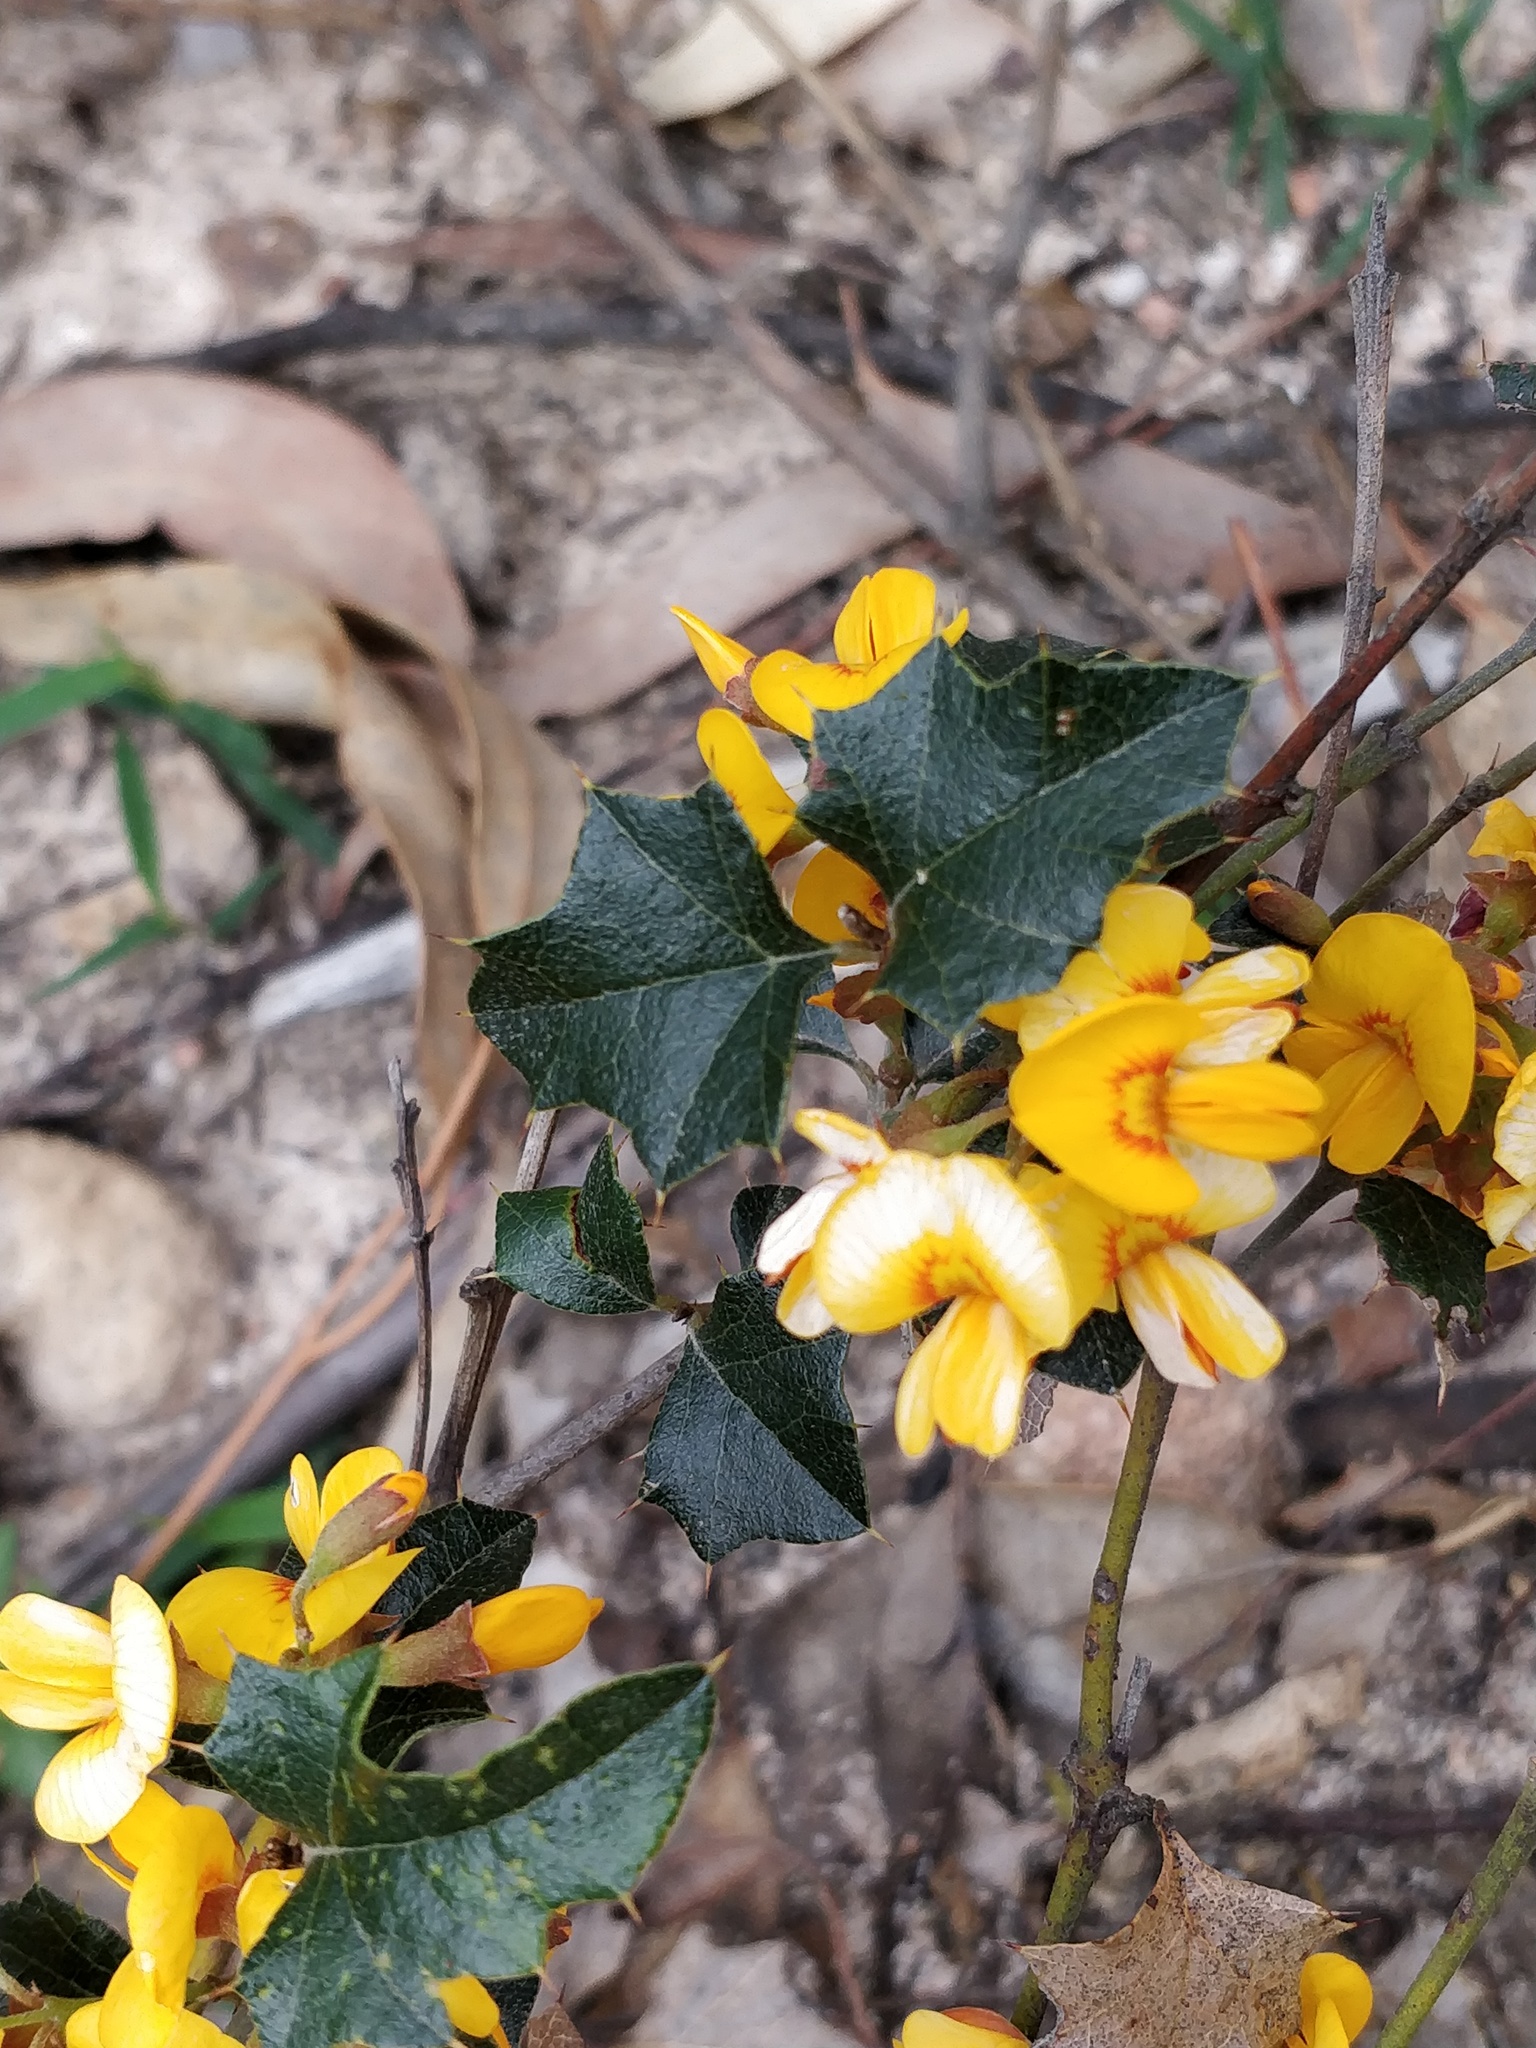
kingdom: Plantae
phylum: Tracheophyta
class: Magnoliopsida
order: Fabales
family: Fabaceae
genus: Podolobium
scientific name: Podolobium ilicifolium
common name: Native holly
